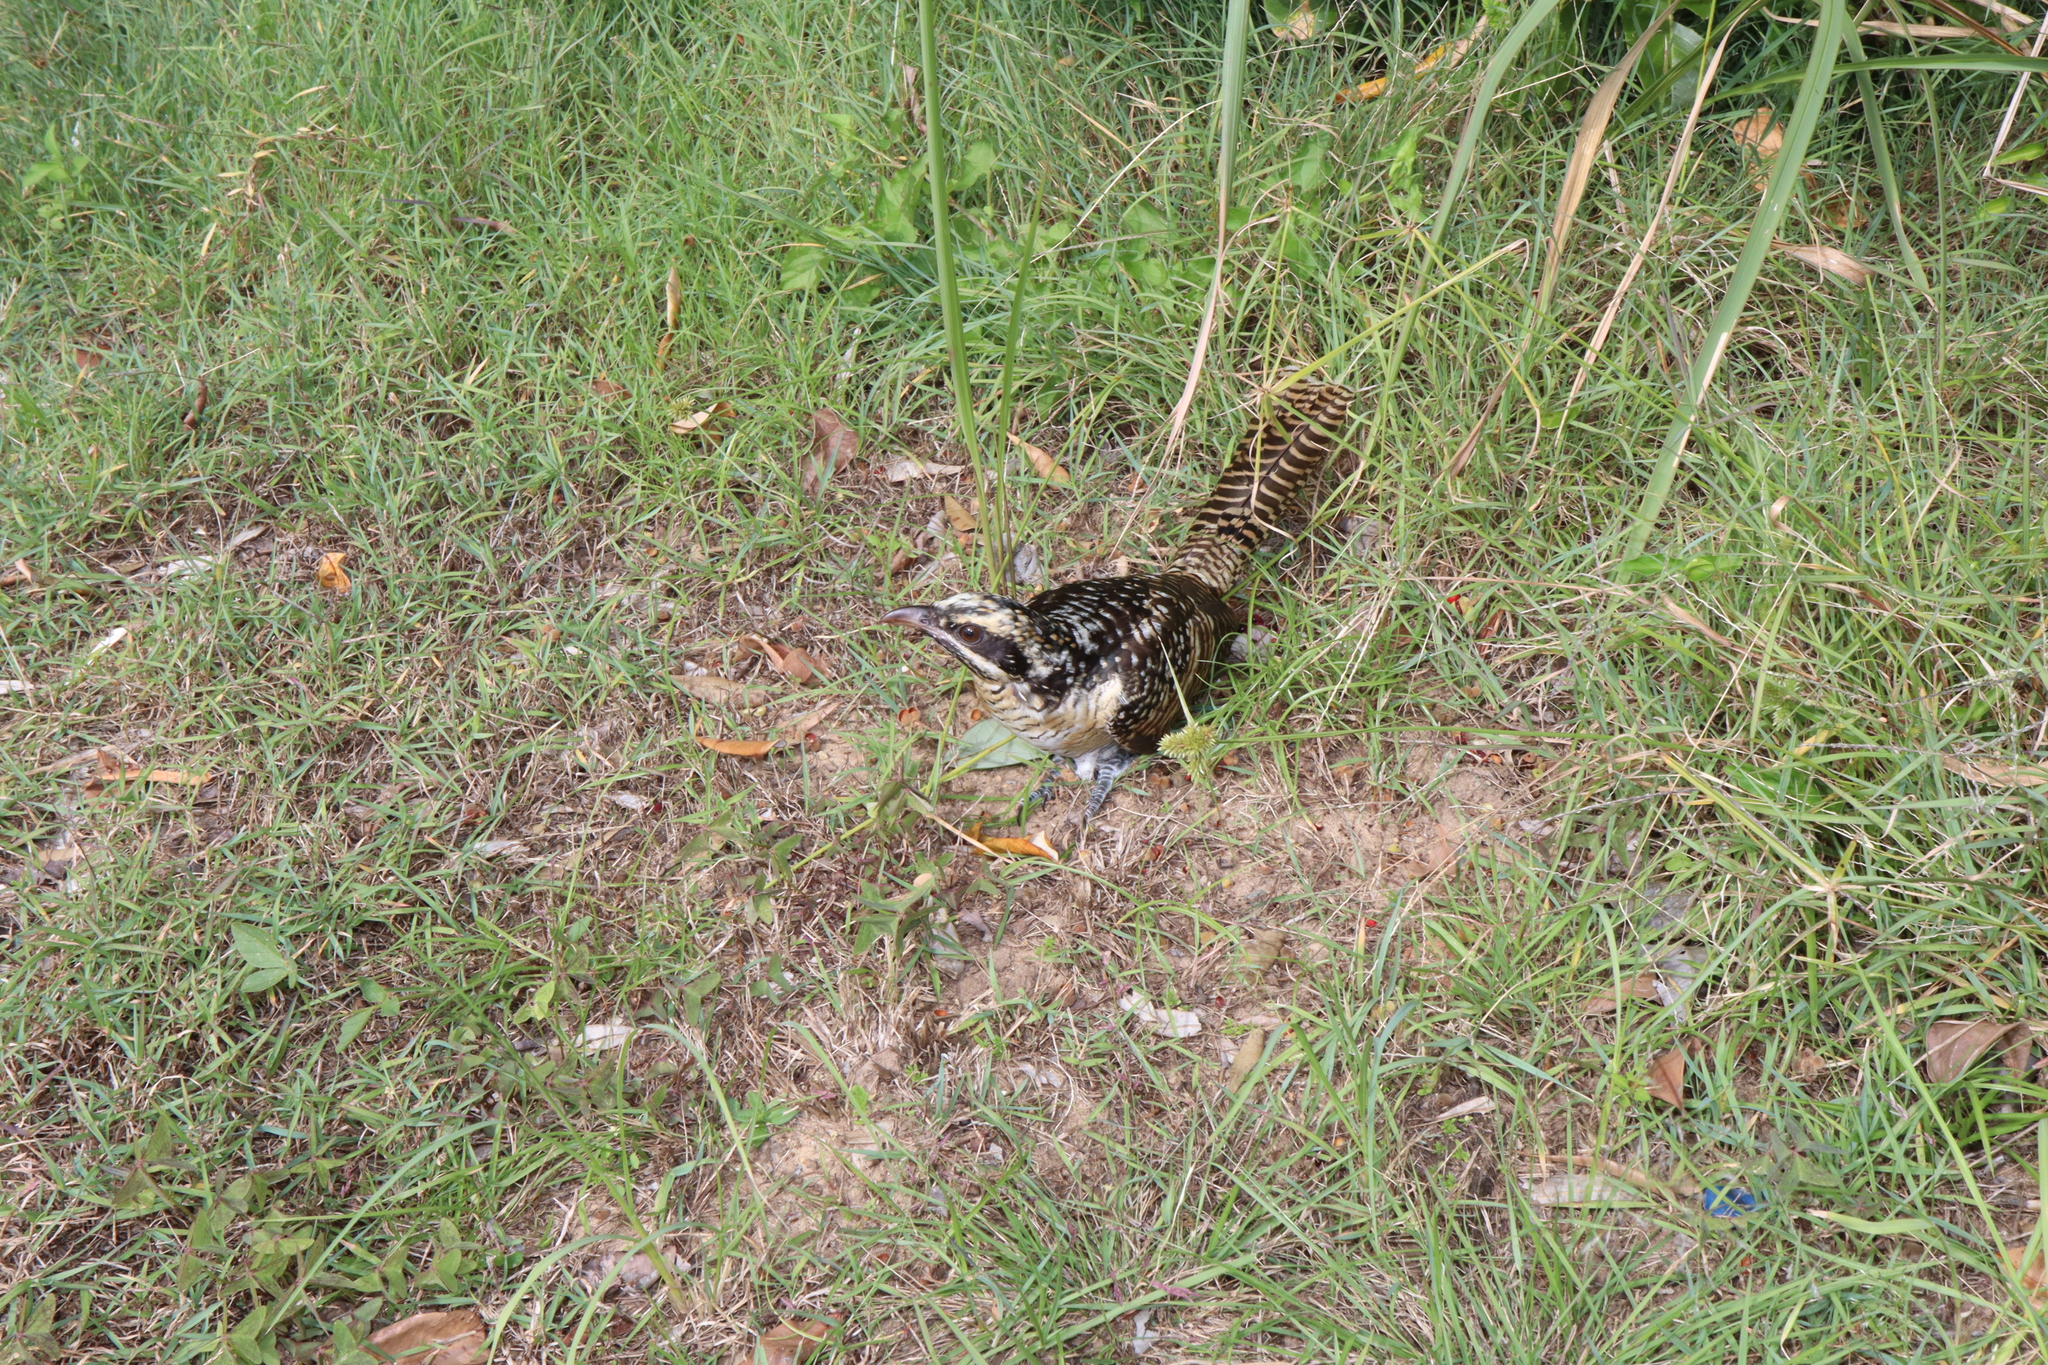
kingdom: Animalia
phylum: Chordata
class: Aves
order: Cuculiformes
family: Cuculidae
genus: Eudynamys
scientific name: Eudynamys orientalis
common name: Pacific koel
